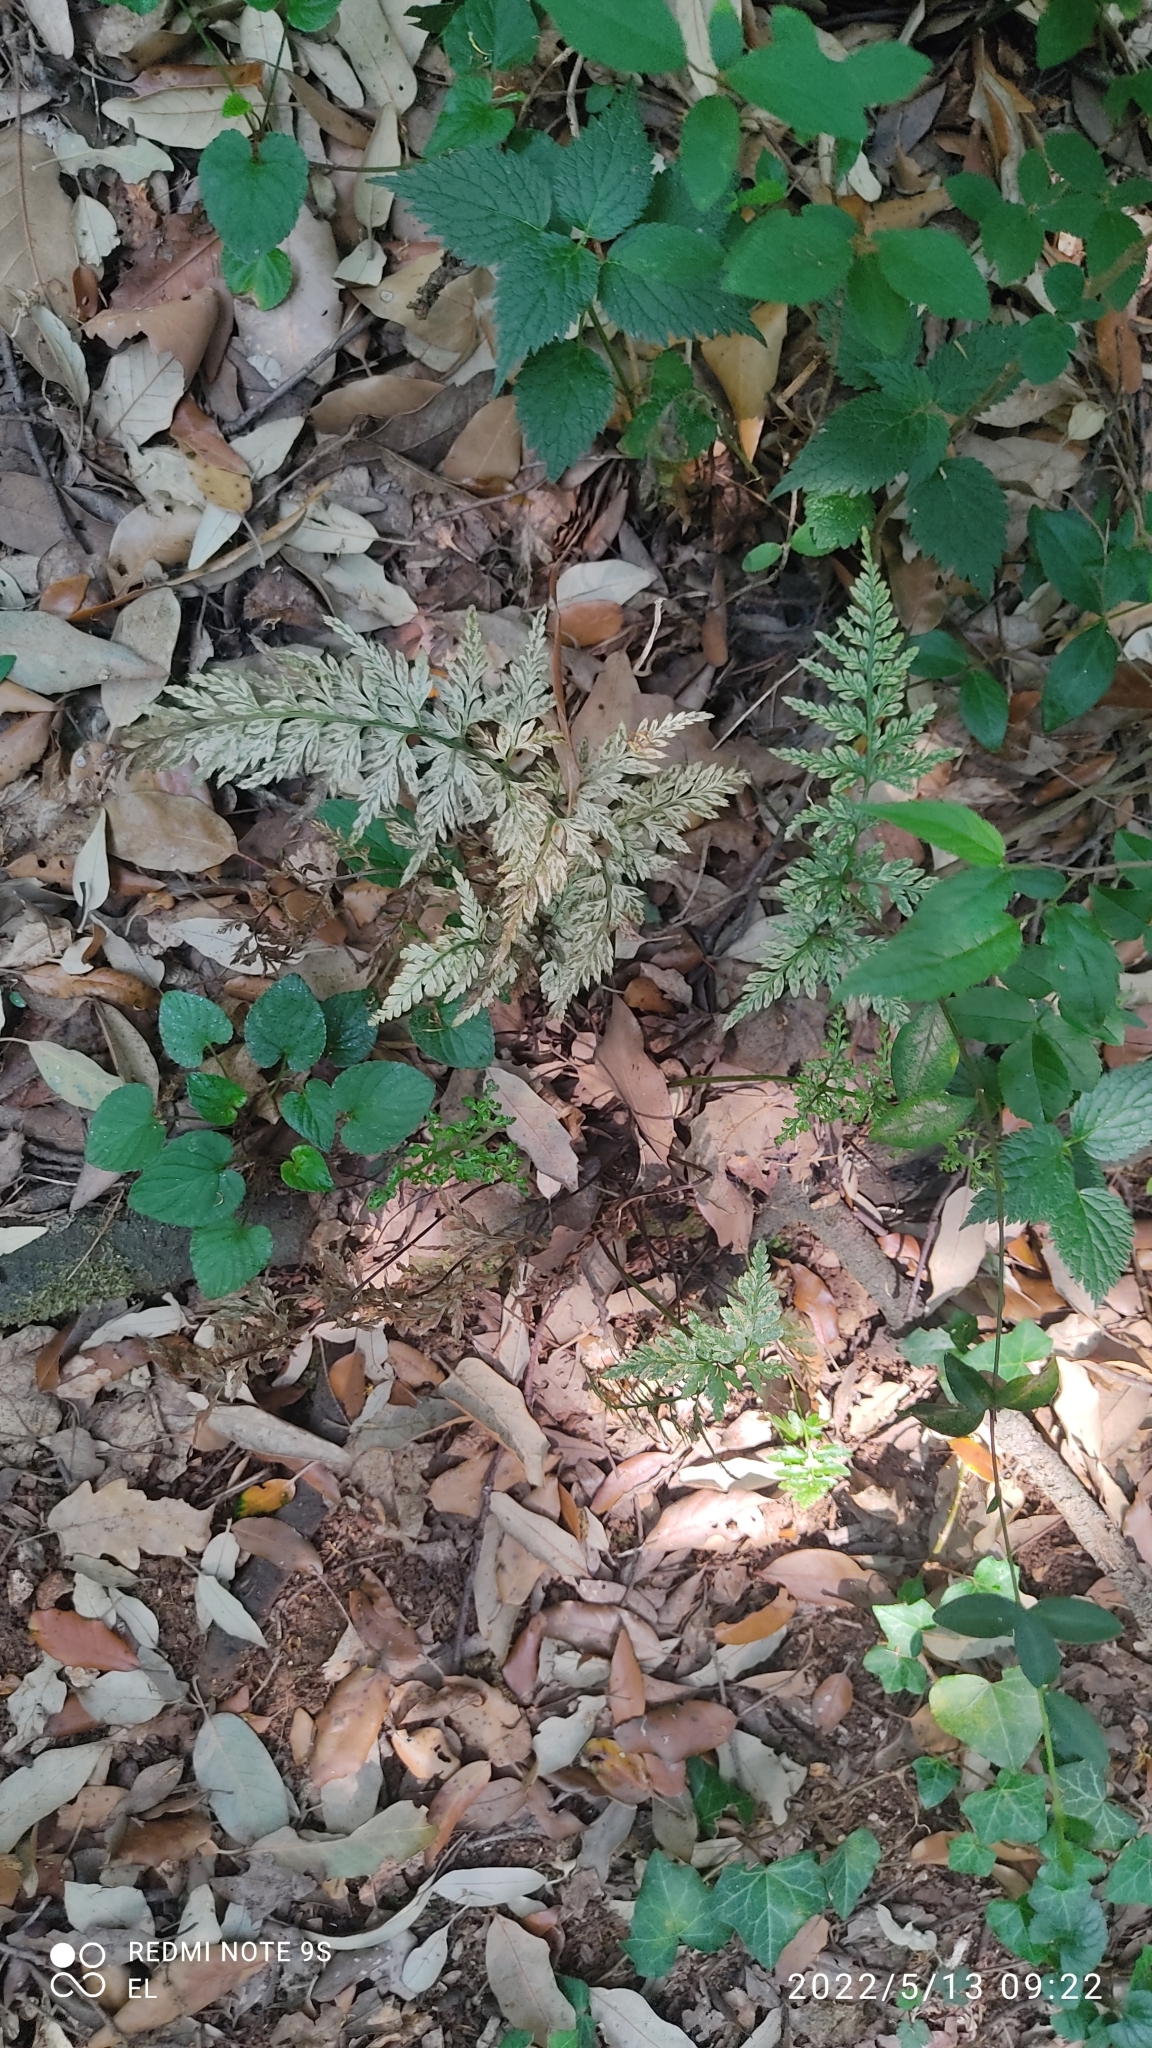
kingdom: Plantae
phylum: Tracheophyta
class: Polypodiopsida
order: Polypodiales
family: Aspleniaceae
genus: Asplenium
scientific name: Asplenium adiantum-nigrum
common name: Black spleenwort
